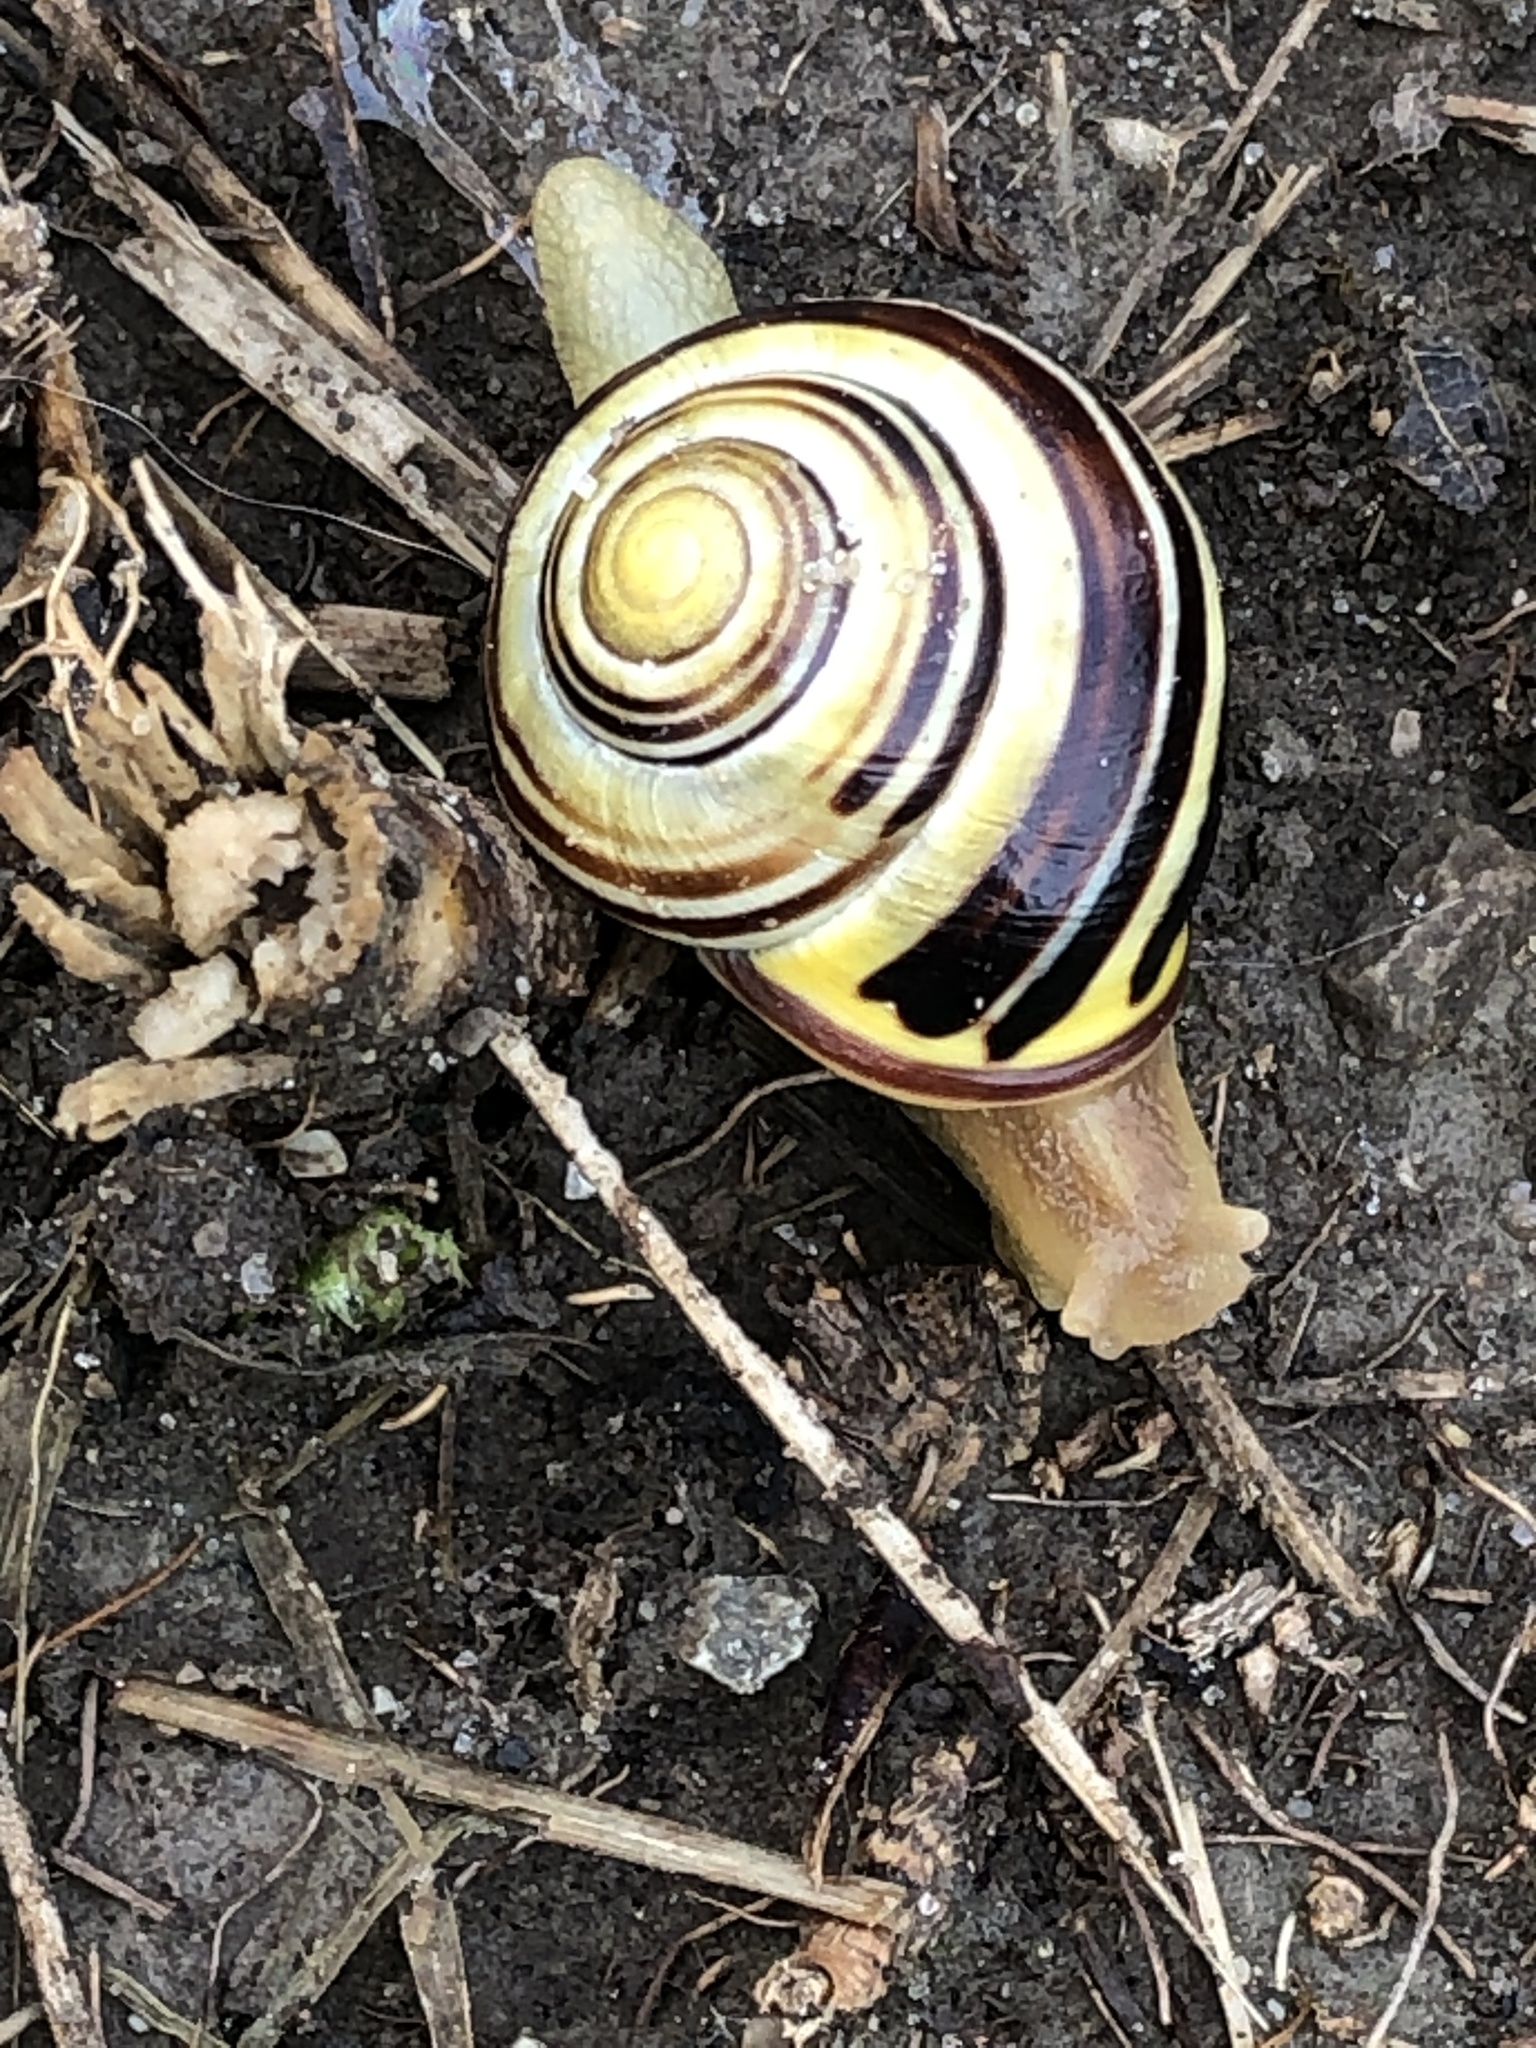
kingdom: Animalia
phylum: Mollusca
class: Gastropoda
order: Stylommatophora
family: Helicidae
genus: Cepaea
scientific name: Cepaea nemoralis
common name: Grovesnail
